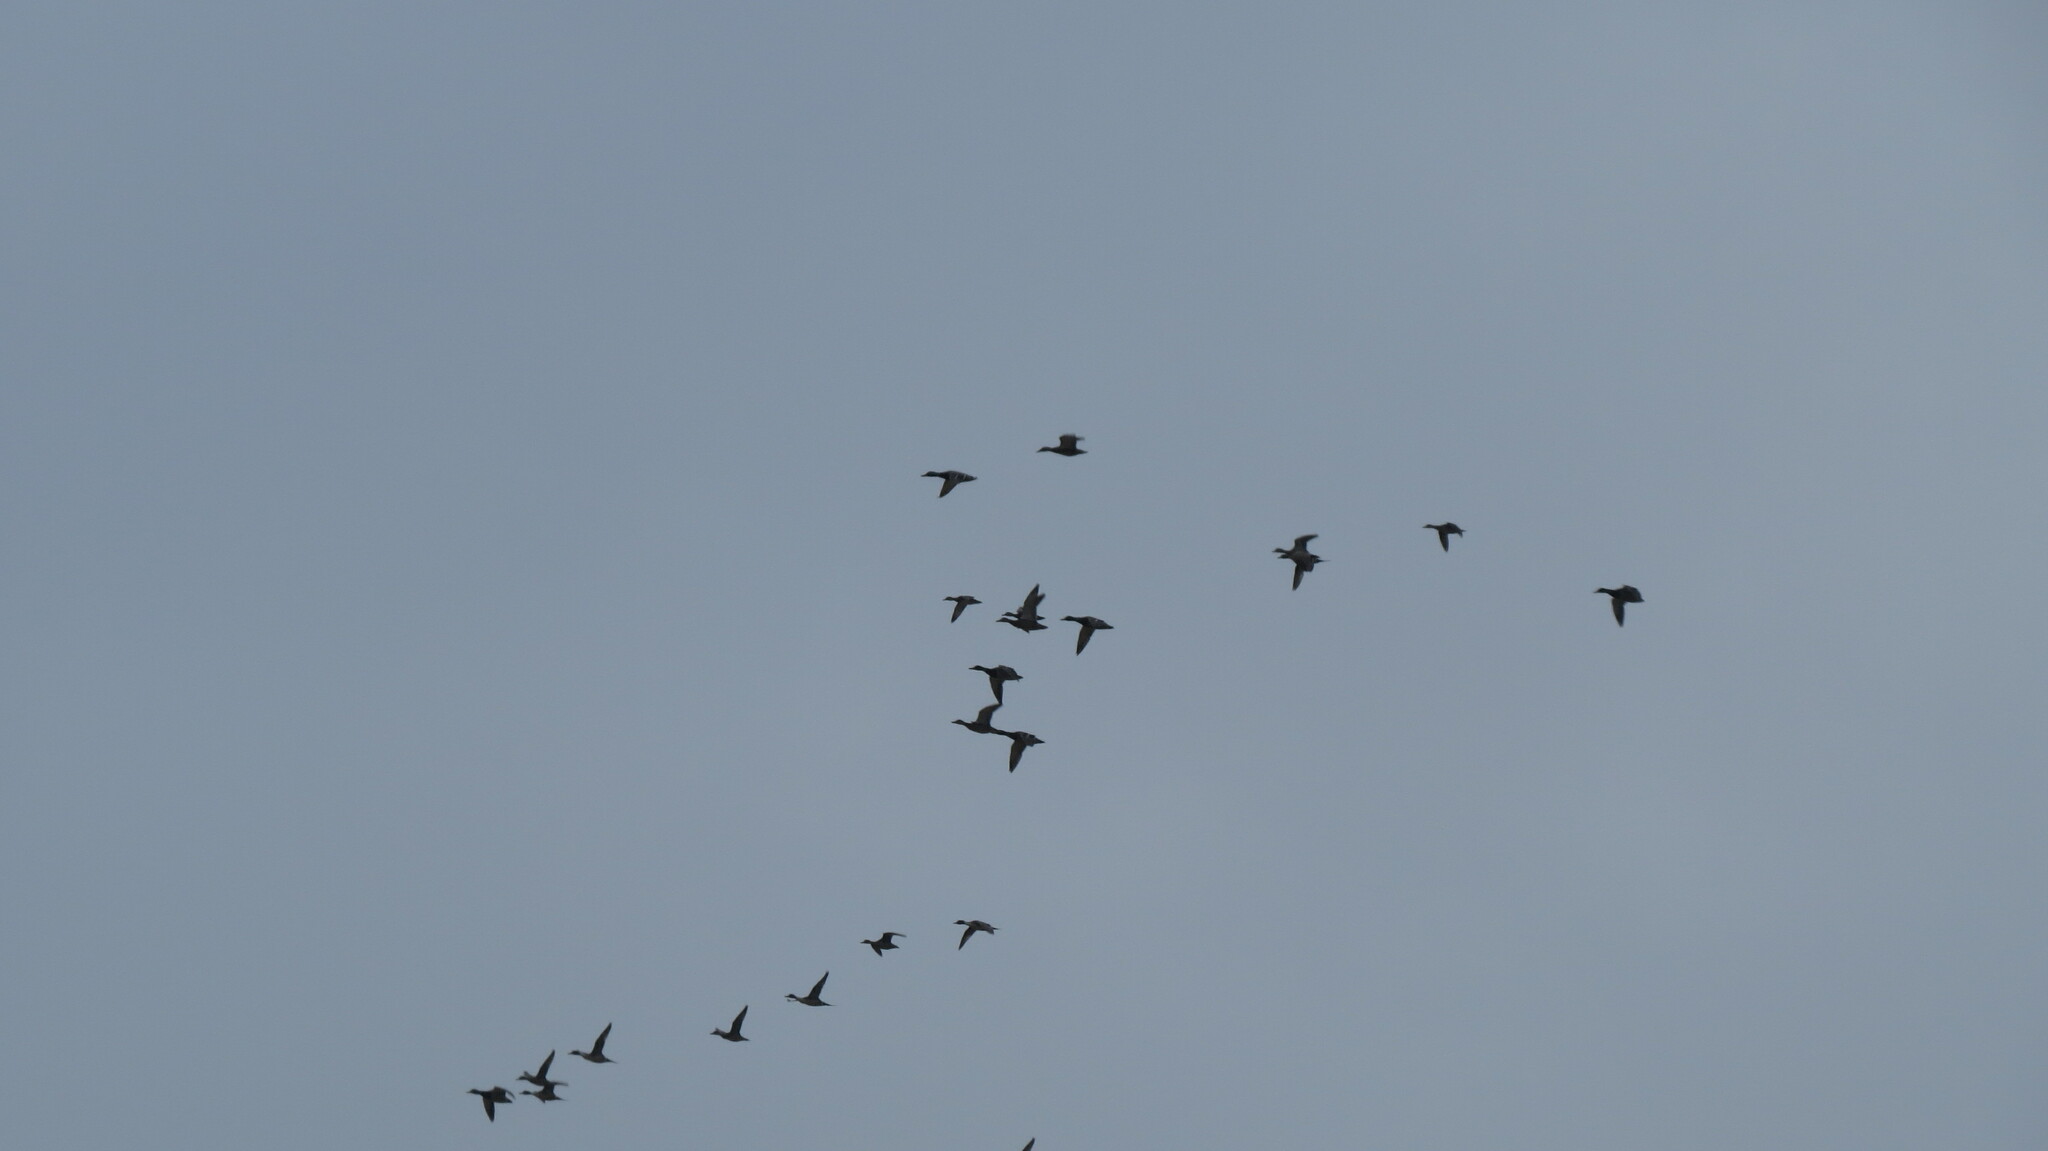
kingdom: Animalia
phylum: Chordata
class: Aves
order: Anseriformes
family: Anatidae
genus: Anas
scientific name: Anas acuta
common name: Northern pintail
